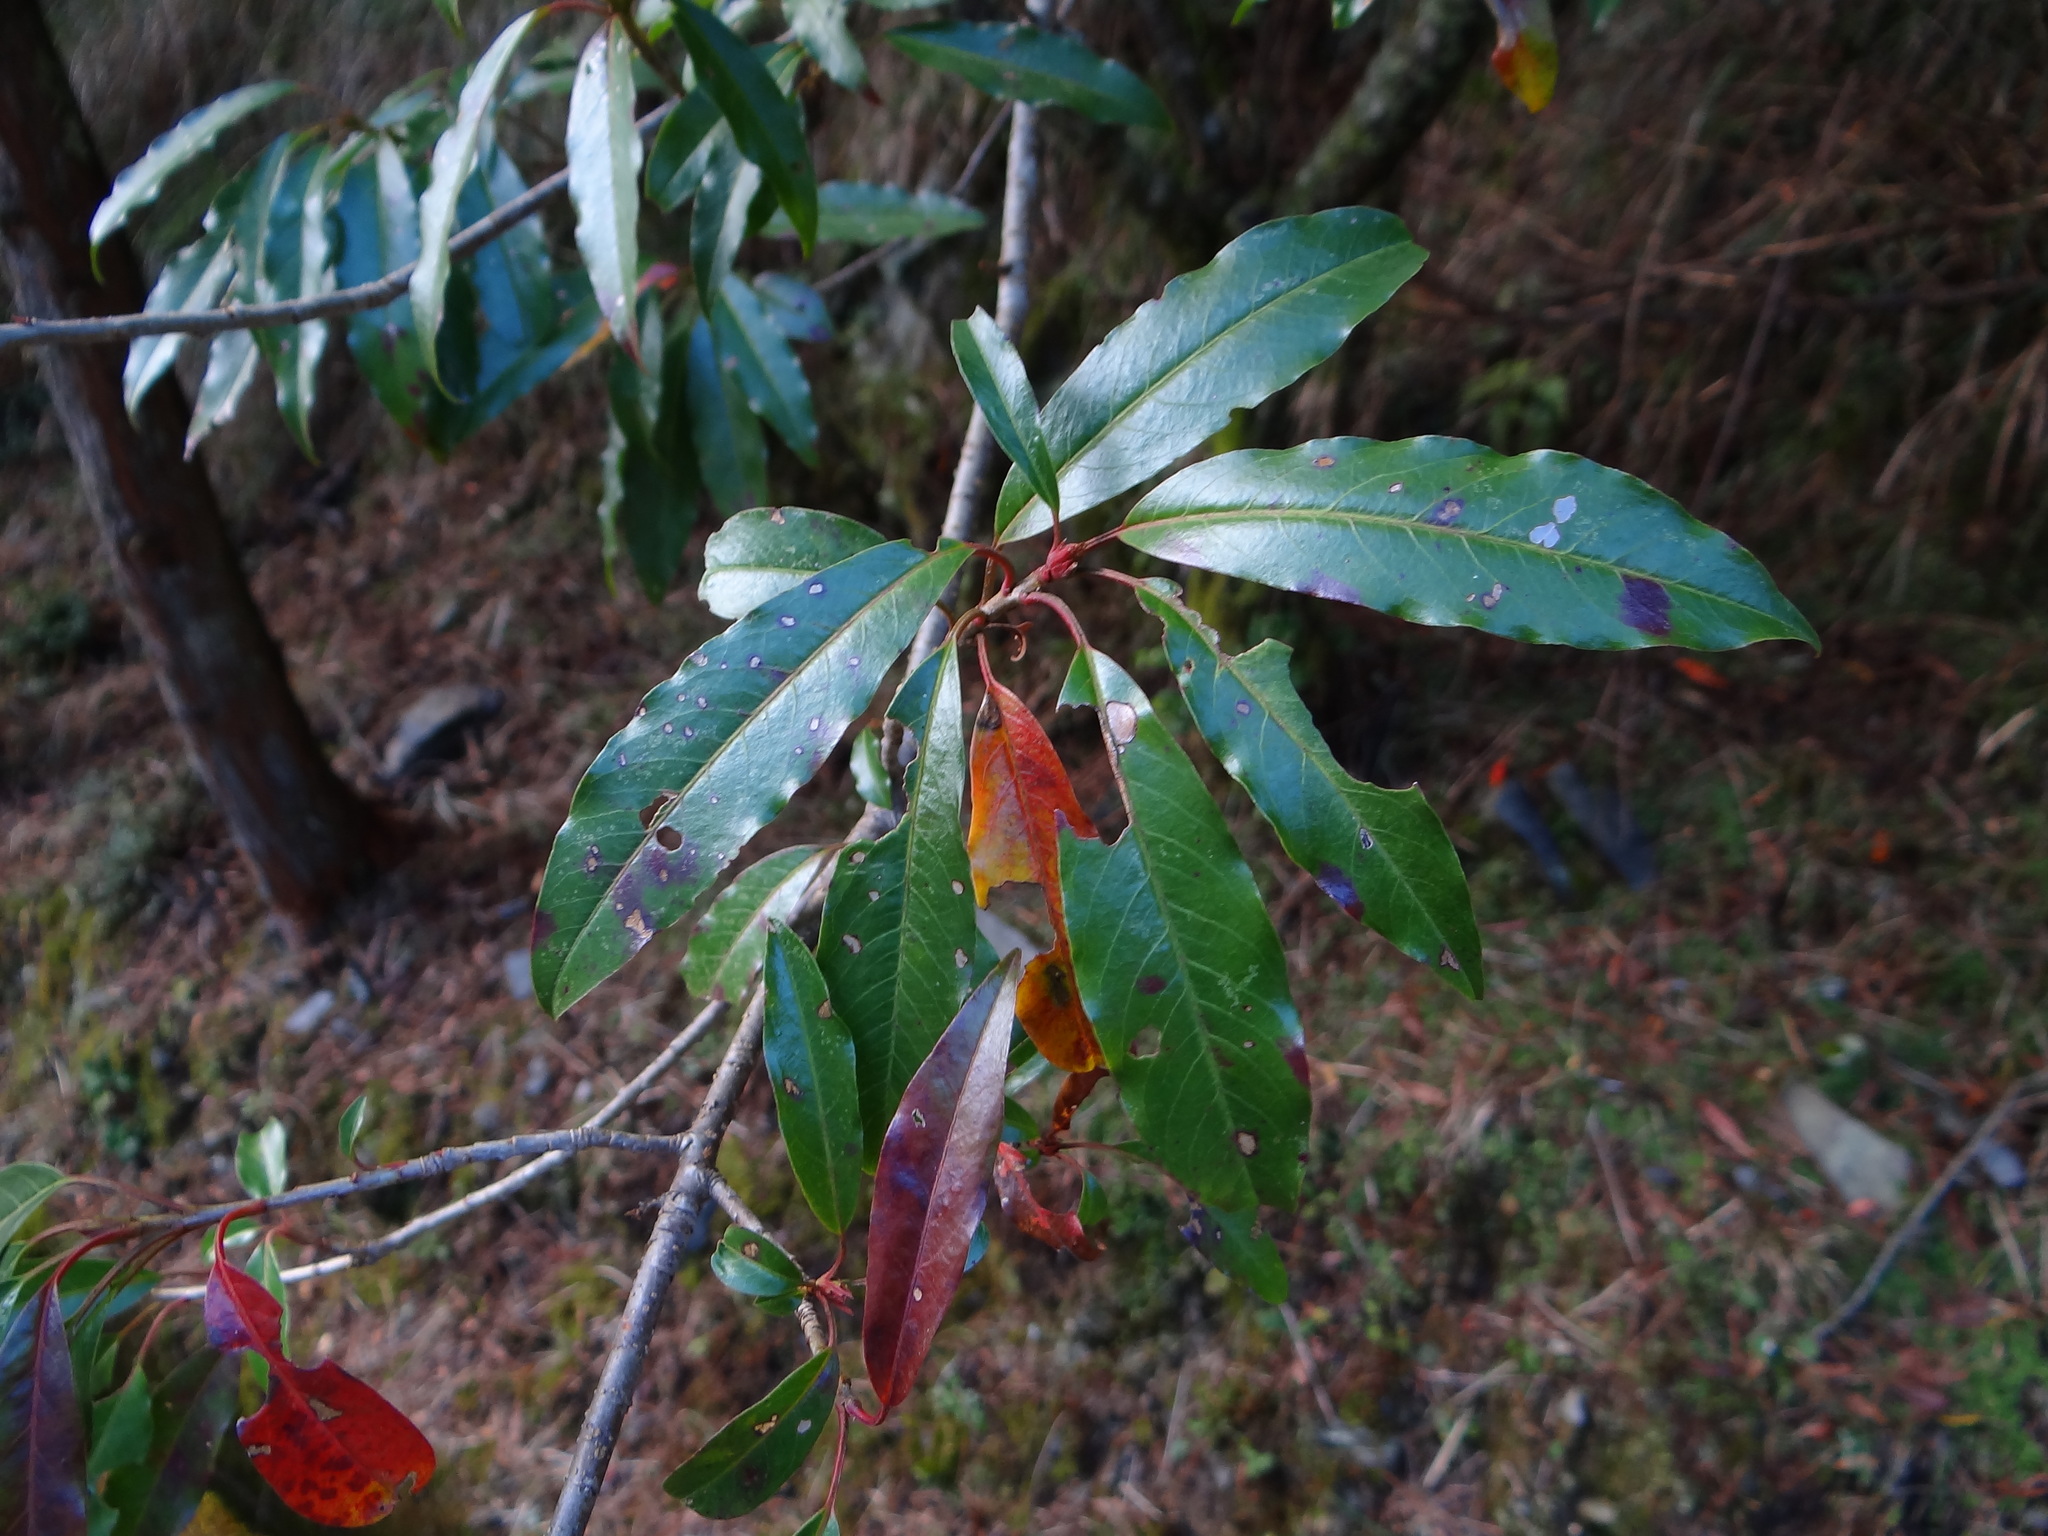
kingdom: Plantae
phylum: Tracheophyta
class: Magnoliopsida
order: Rosales
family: Rosaceae
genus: Stranvaesia
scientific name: Stranvaesia davidiana
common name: Chinese photinia
